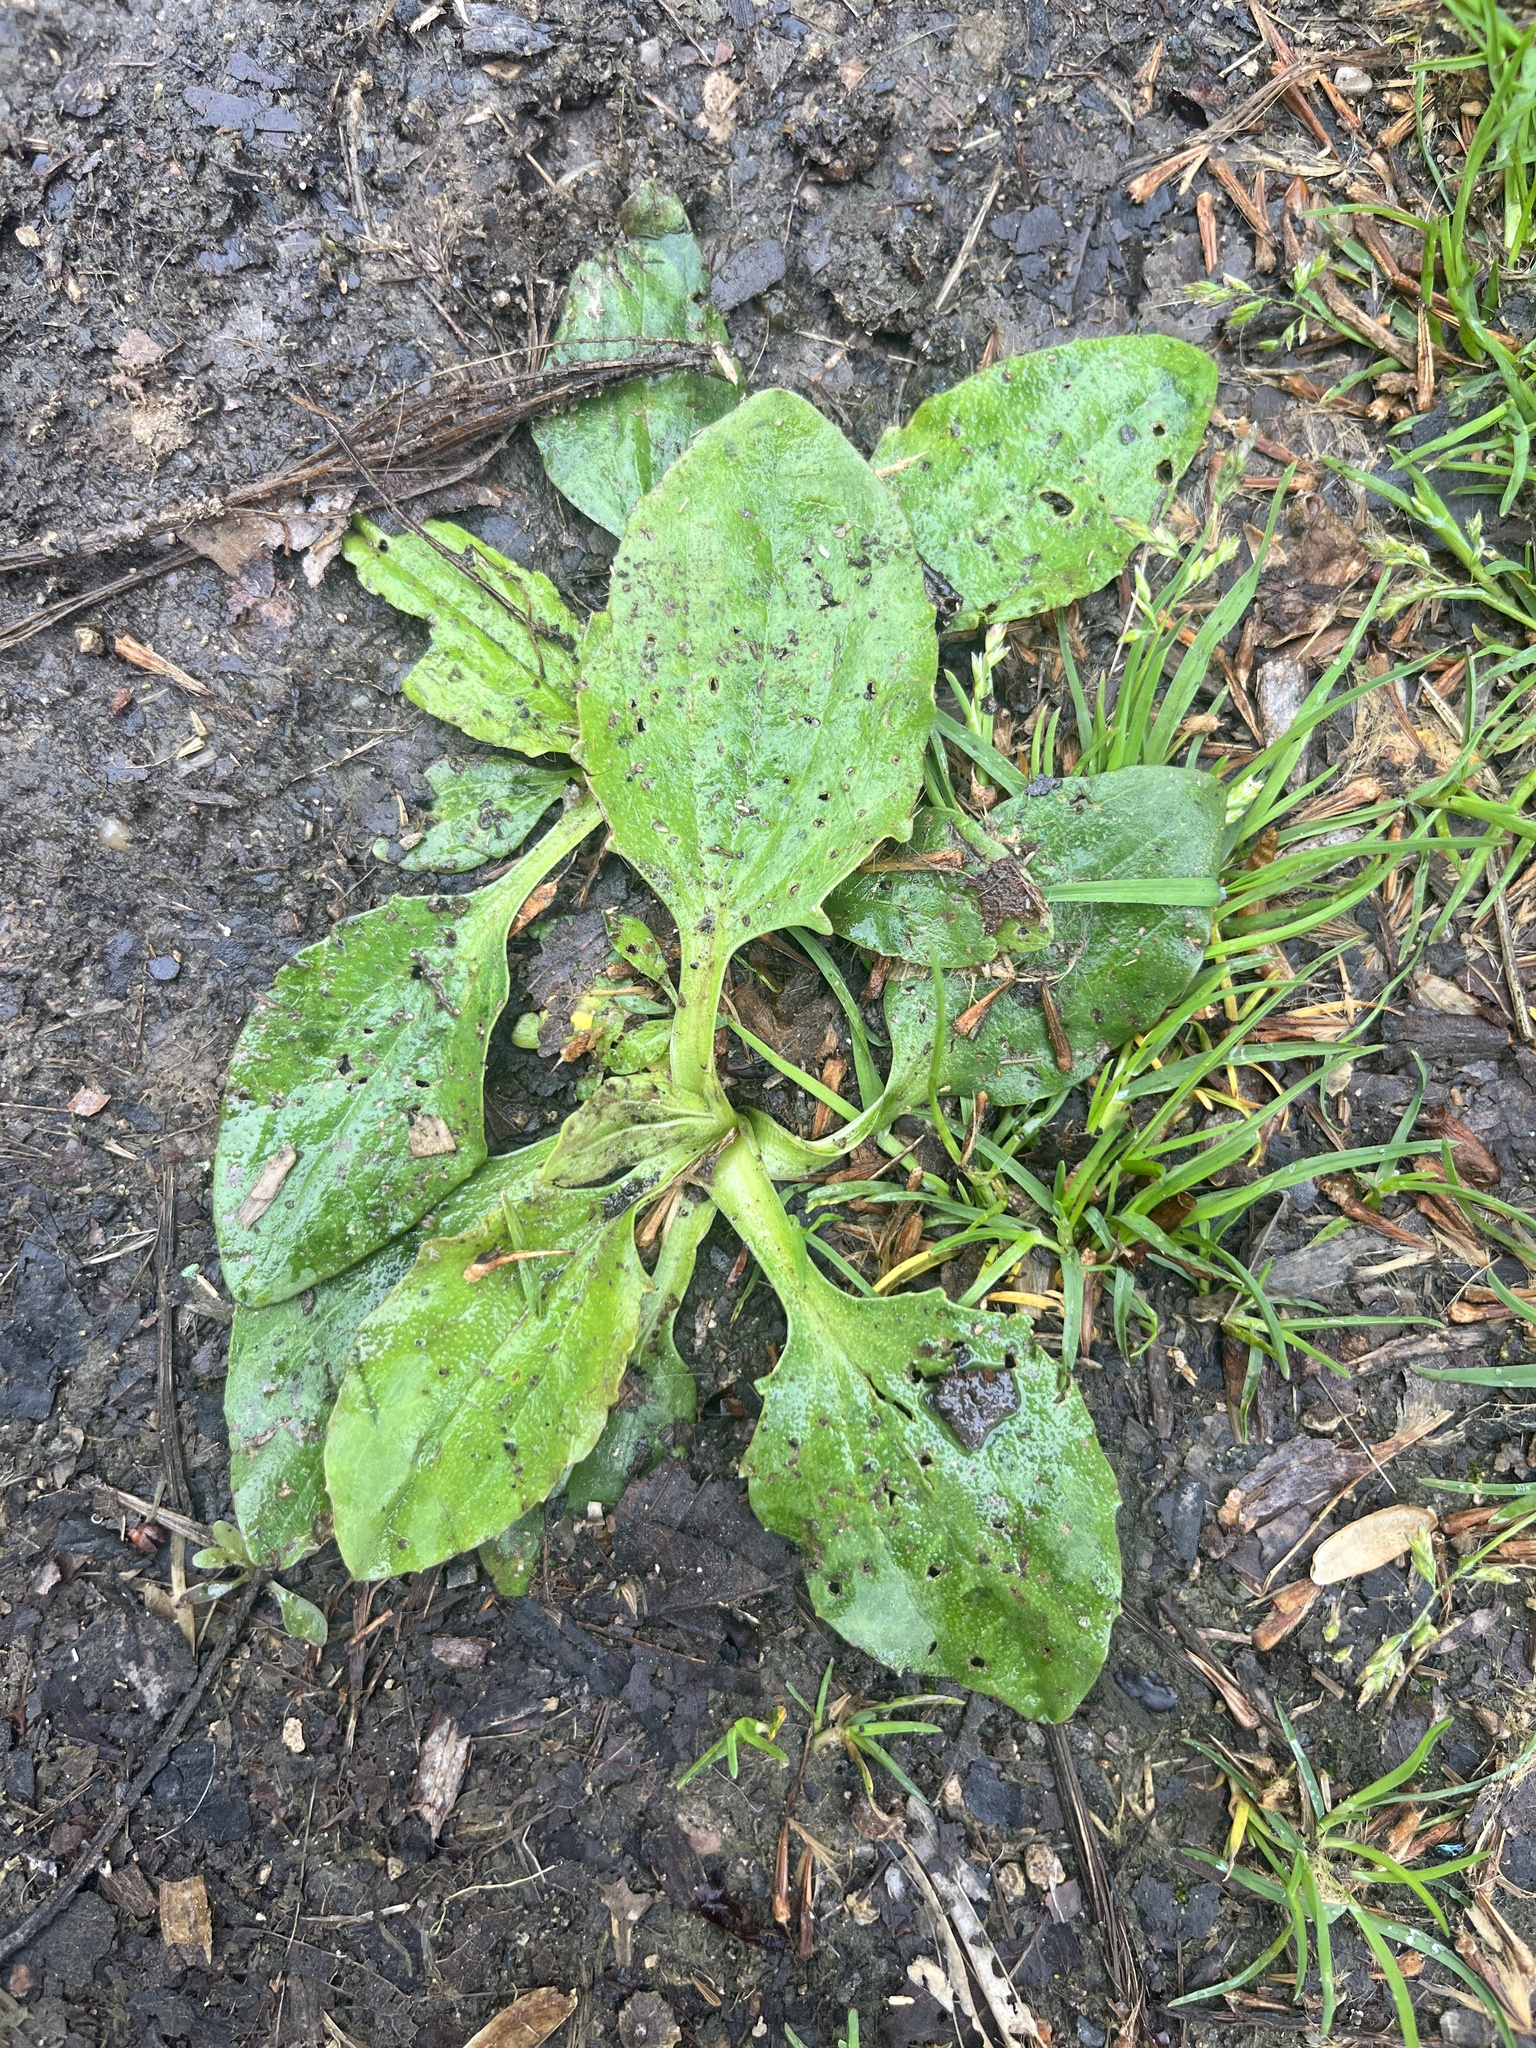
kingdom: Plantae
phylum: Tracheophyta
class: Magnoliopsida
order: Lamiales
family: Plantaginaceae
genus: Plantago
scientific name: Plantago major
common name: Common plantain
